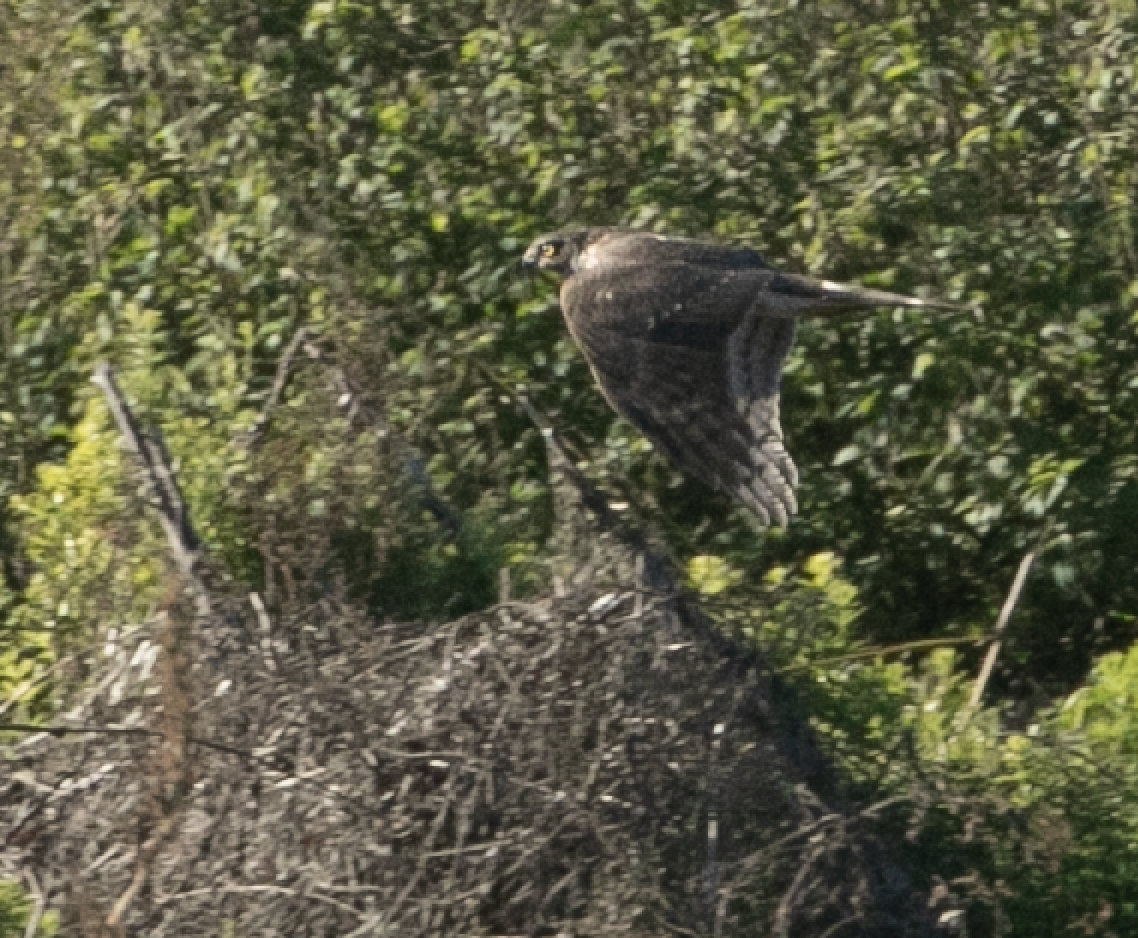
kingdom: Animalia
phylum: Chordata
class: Aves
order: Accipitriformes
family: Accipitridae
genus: Accipiter
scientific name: Accipiter nisus
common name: Eurasian sparrowhawk
